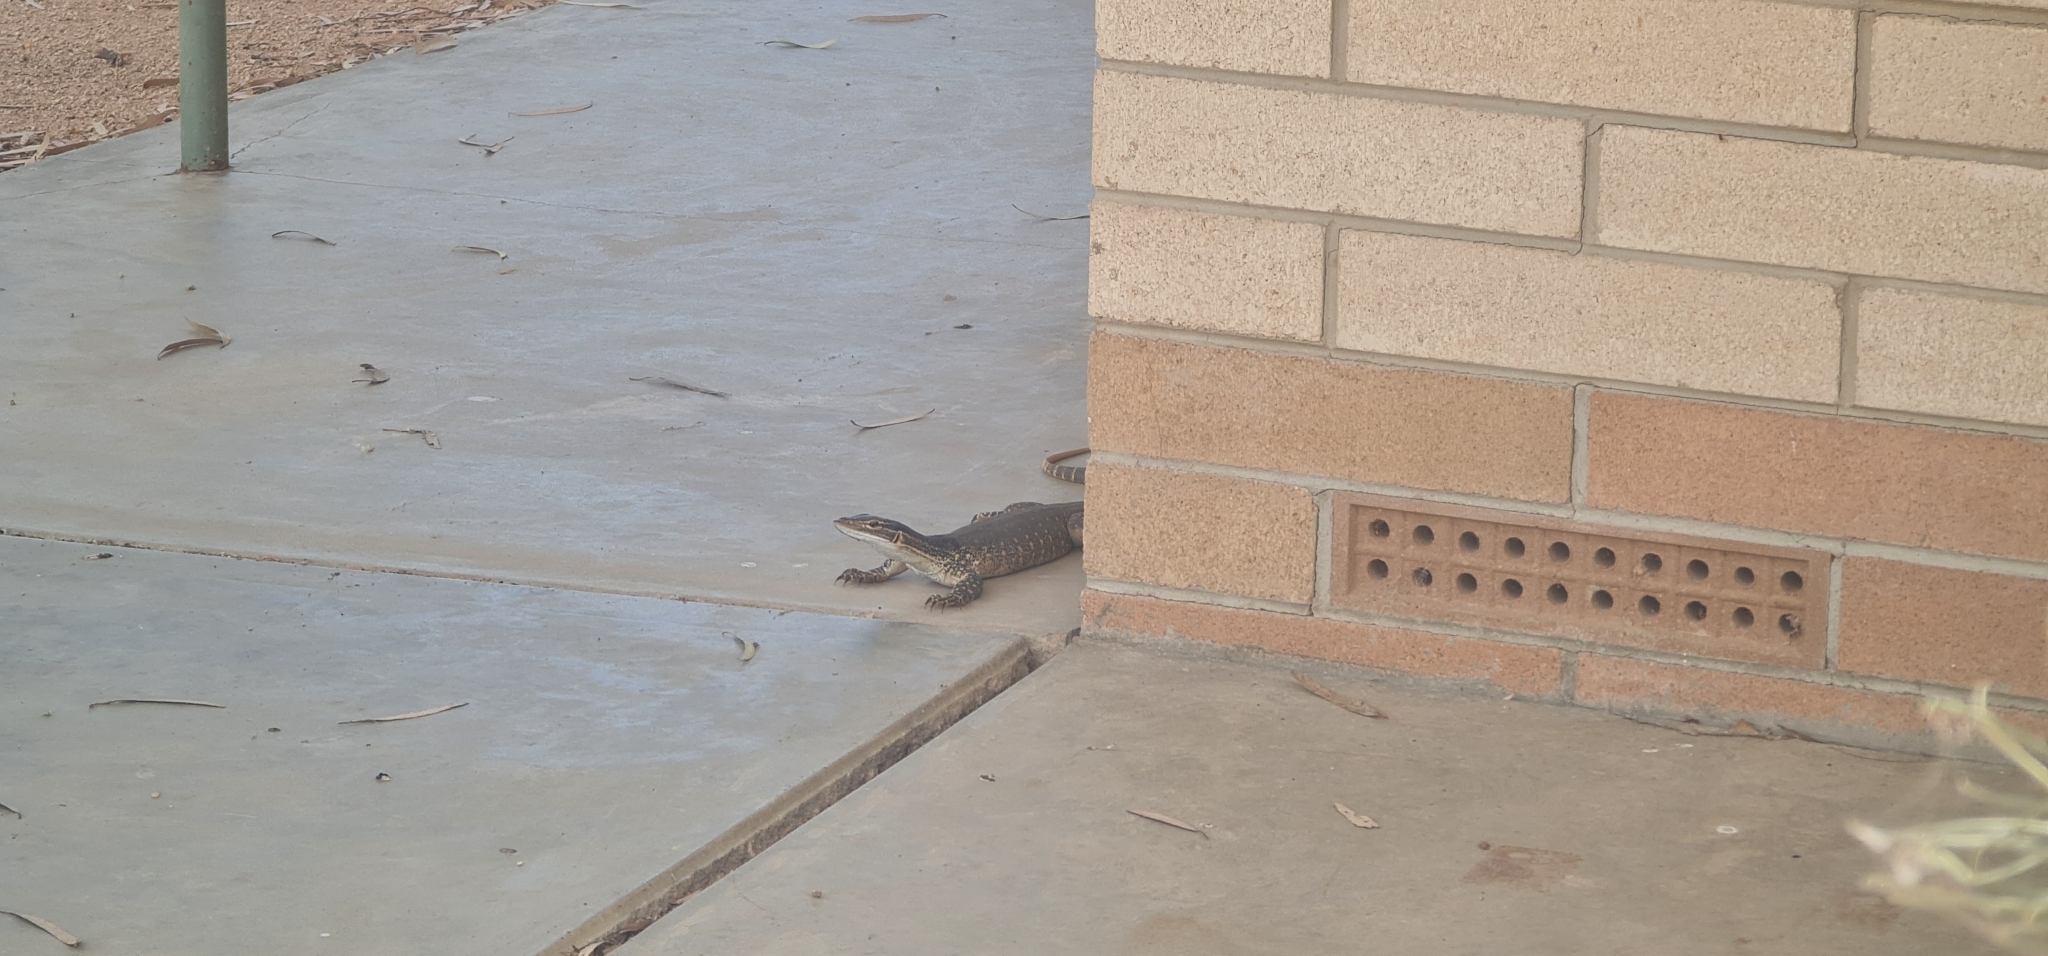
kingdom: Animalia
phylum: Chordata
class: Squamata
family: Varanidae
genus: Varanus
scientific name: Varanus gouldii
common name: Gould's goanna
